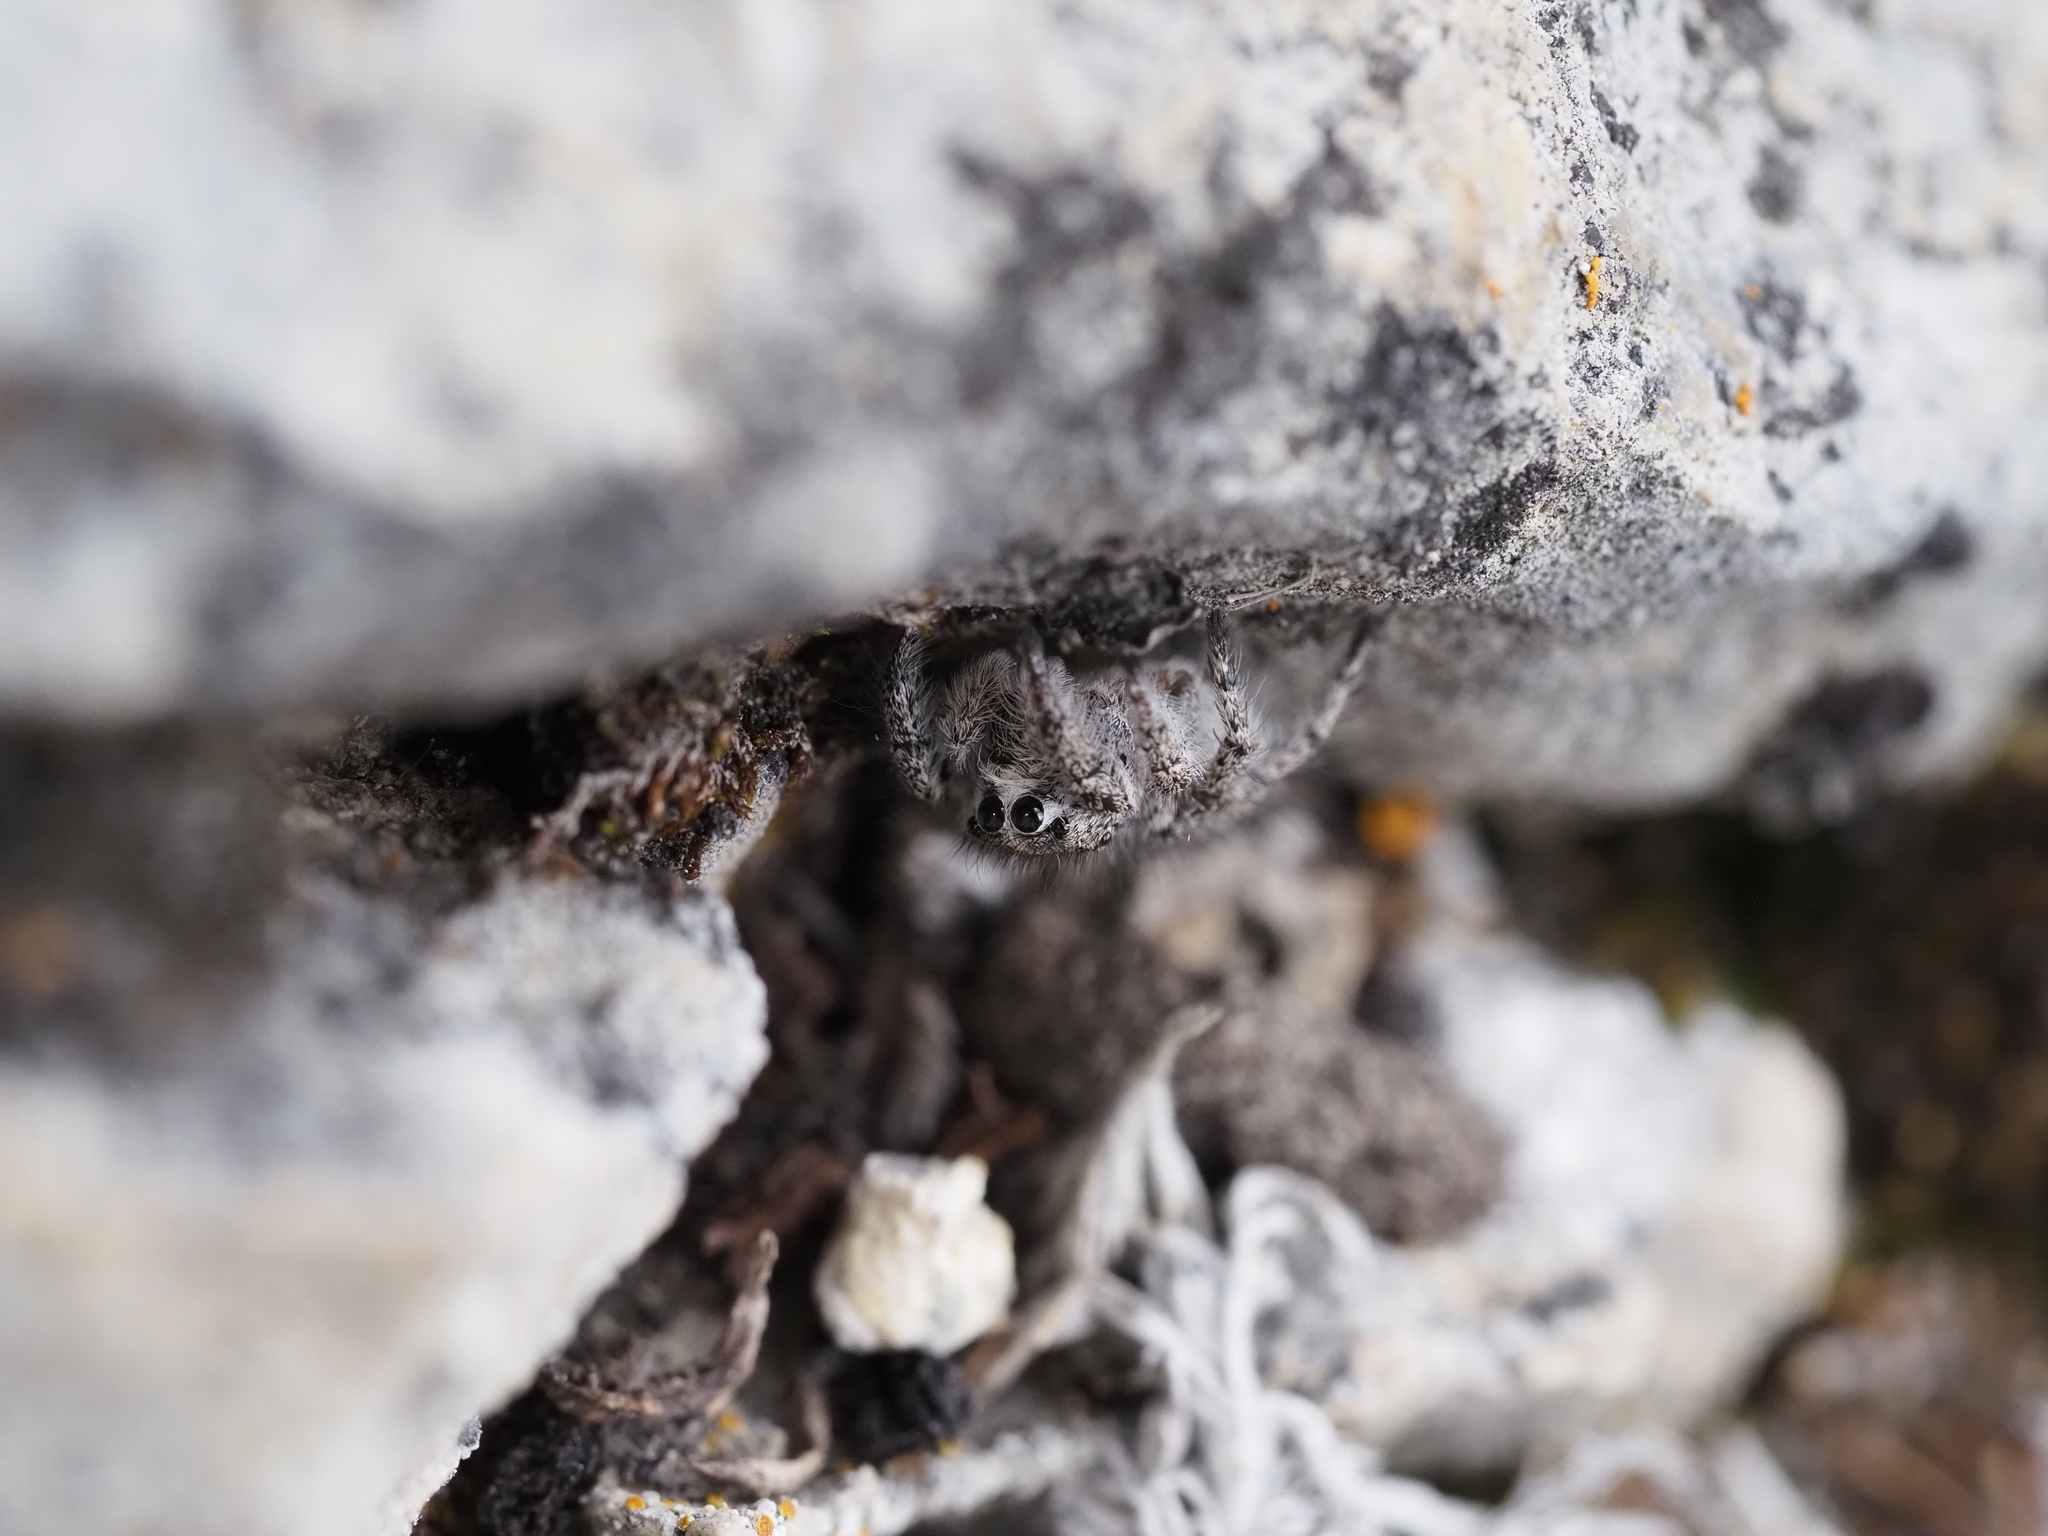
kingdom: Animalia
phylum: Arthropoda
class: Arachnida
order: Araneae
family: Salticidae
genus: Habronattus
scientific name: Habronattus hirsutus
